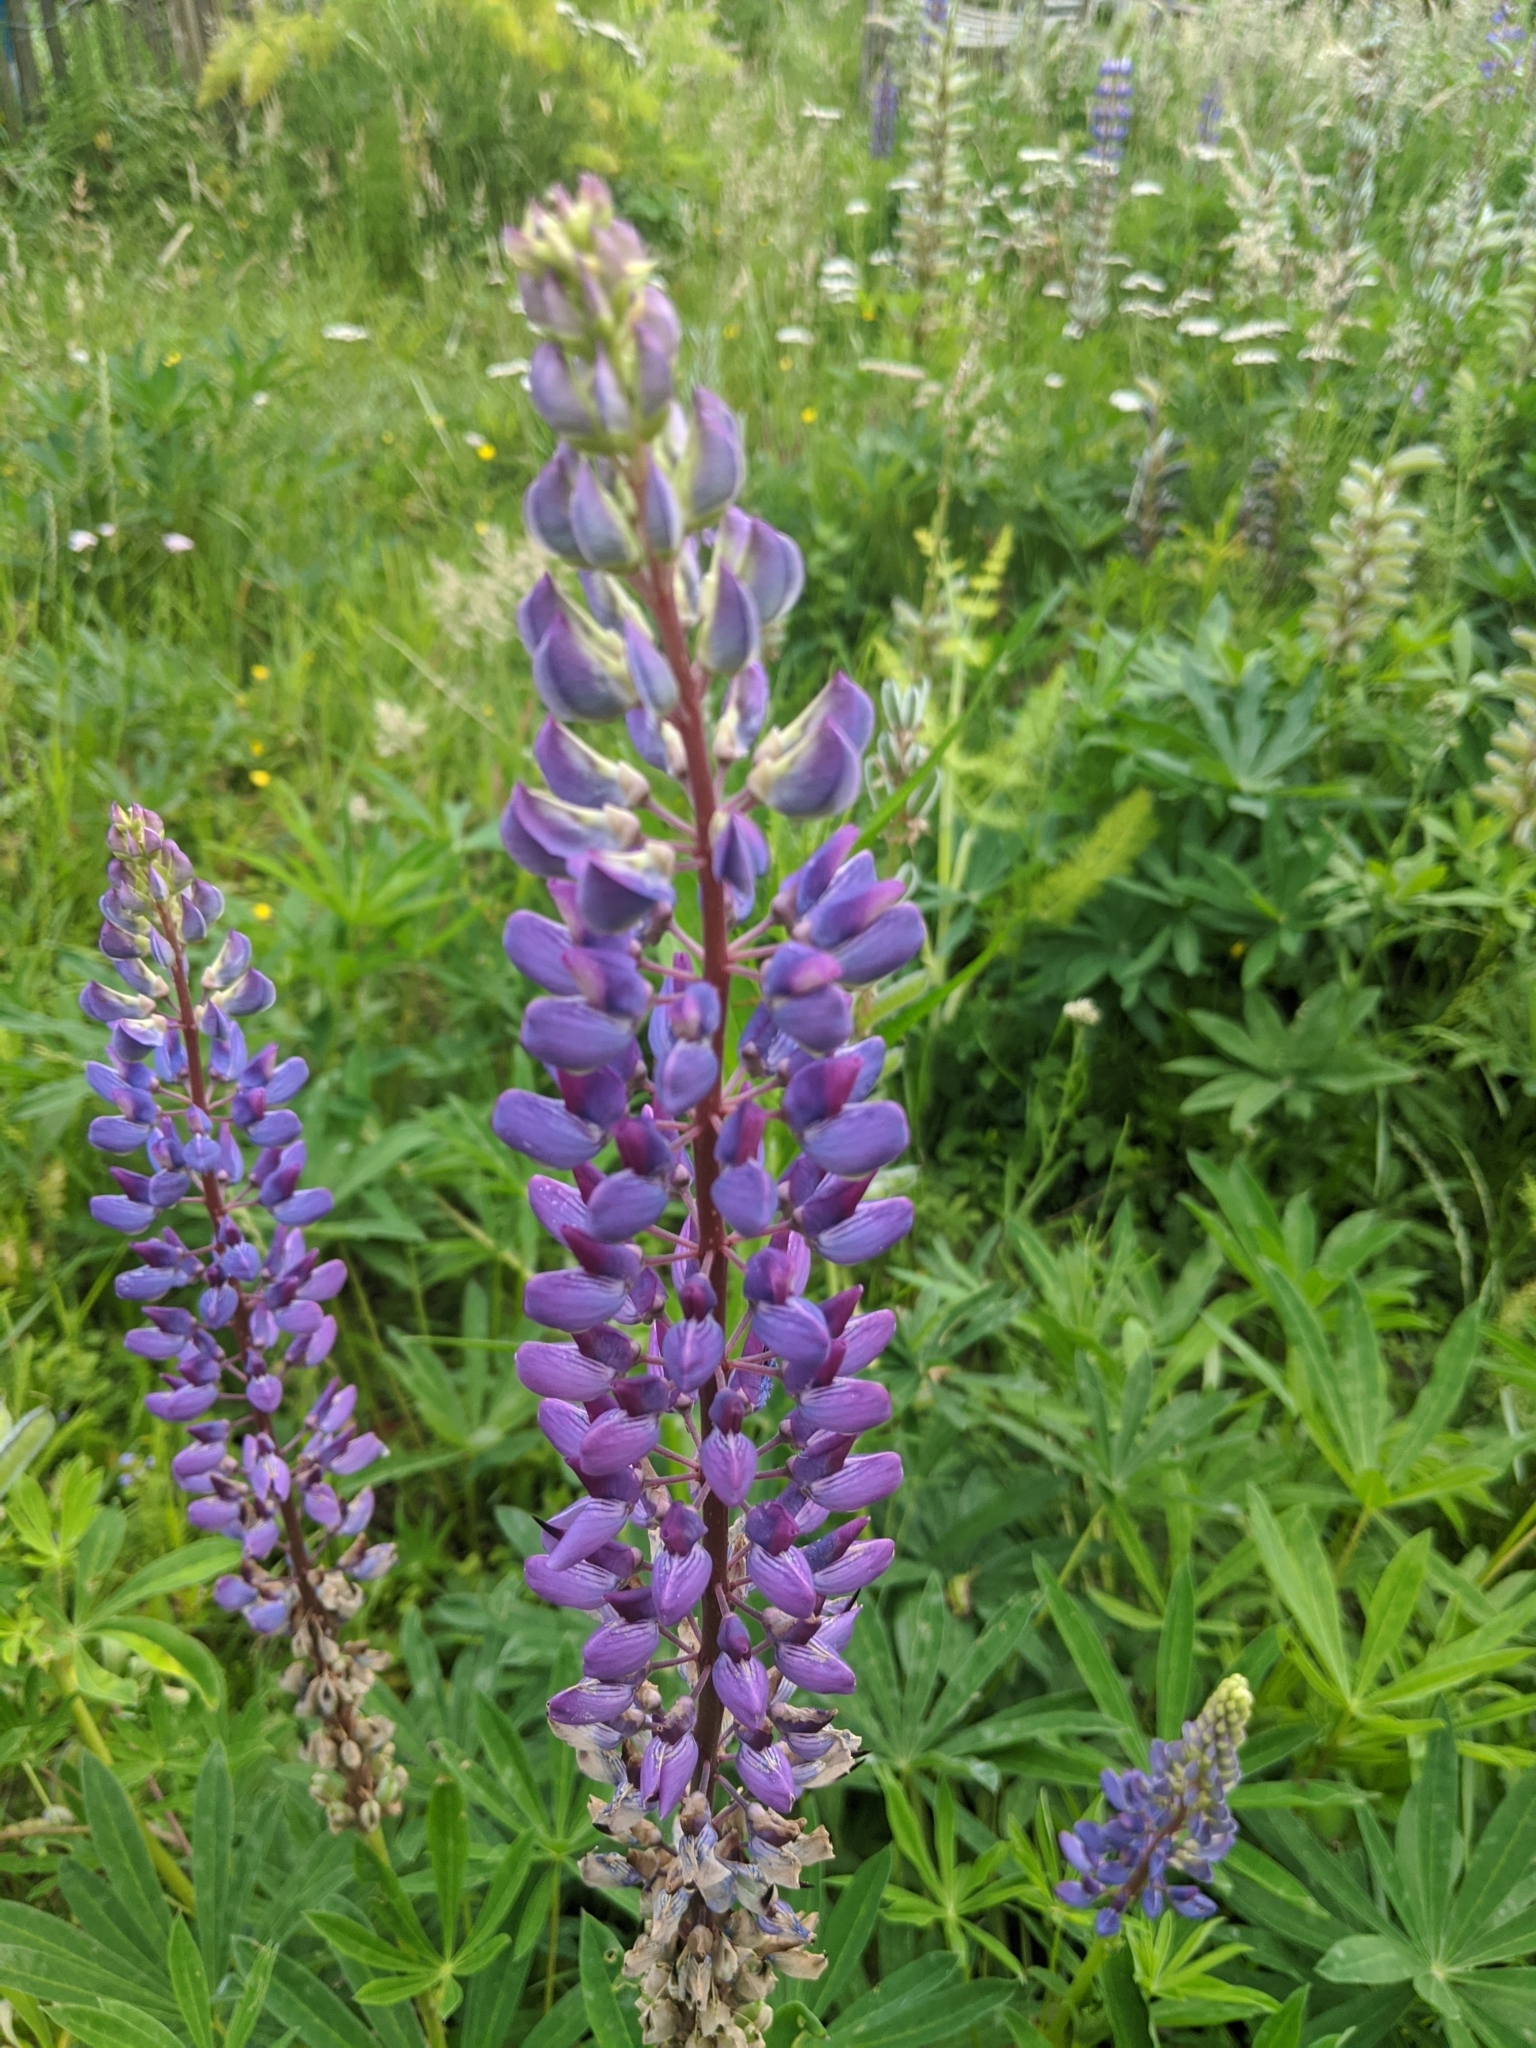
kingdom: Plantae
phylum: Tracheophyta
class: Magnoliopsida
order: Fabales
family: Fabaceae
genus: Lupinus
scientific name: Lupinus polyphyllus
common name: Garden lupin
